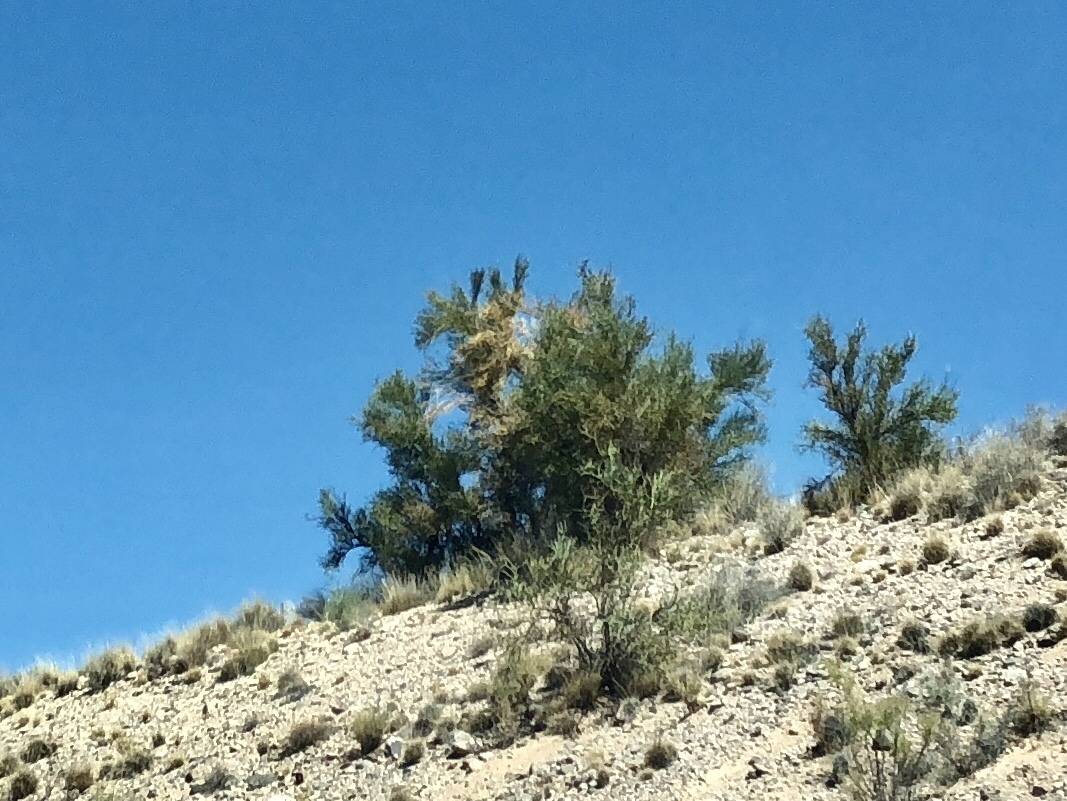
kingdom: Plantae
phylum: Tracheophyta
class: Magnoliopsida
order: Celastrales
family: Celastraceae
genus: Canotia
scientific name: Canotia holacantha
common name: Crucifixion thorns
